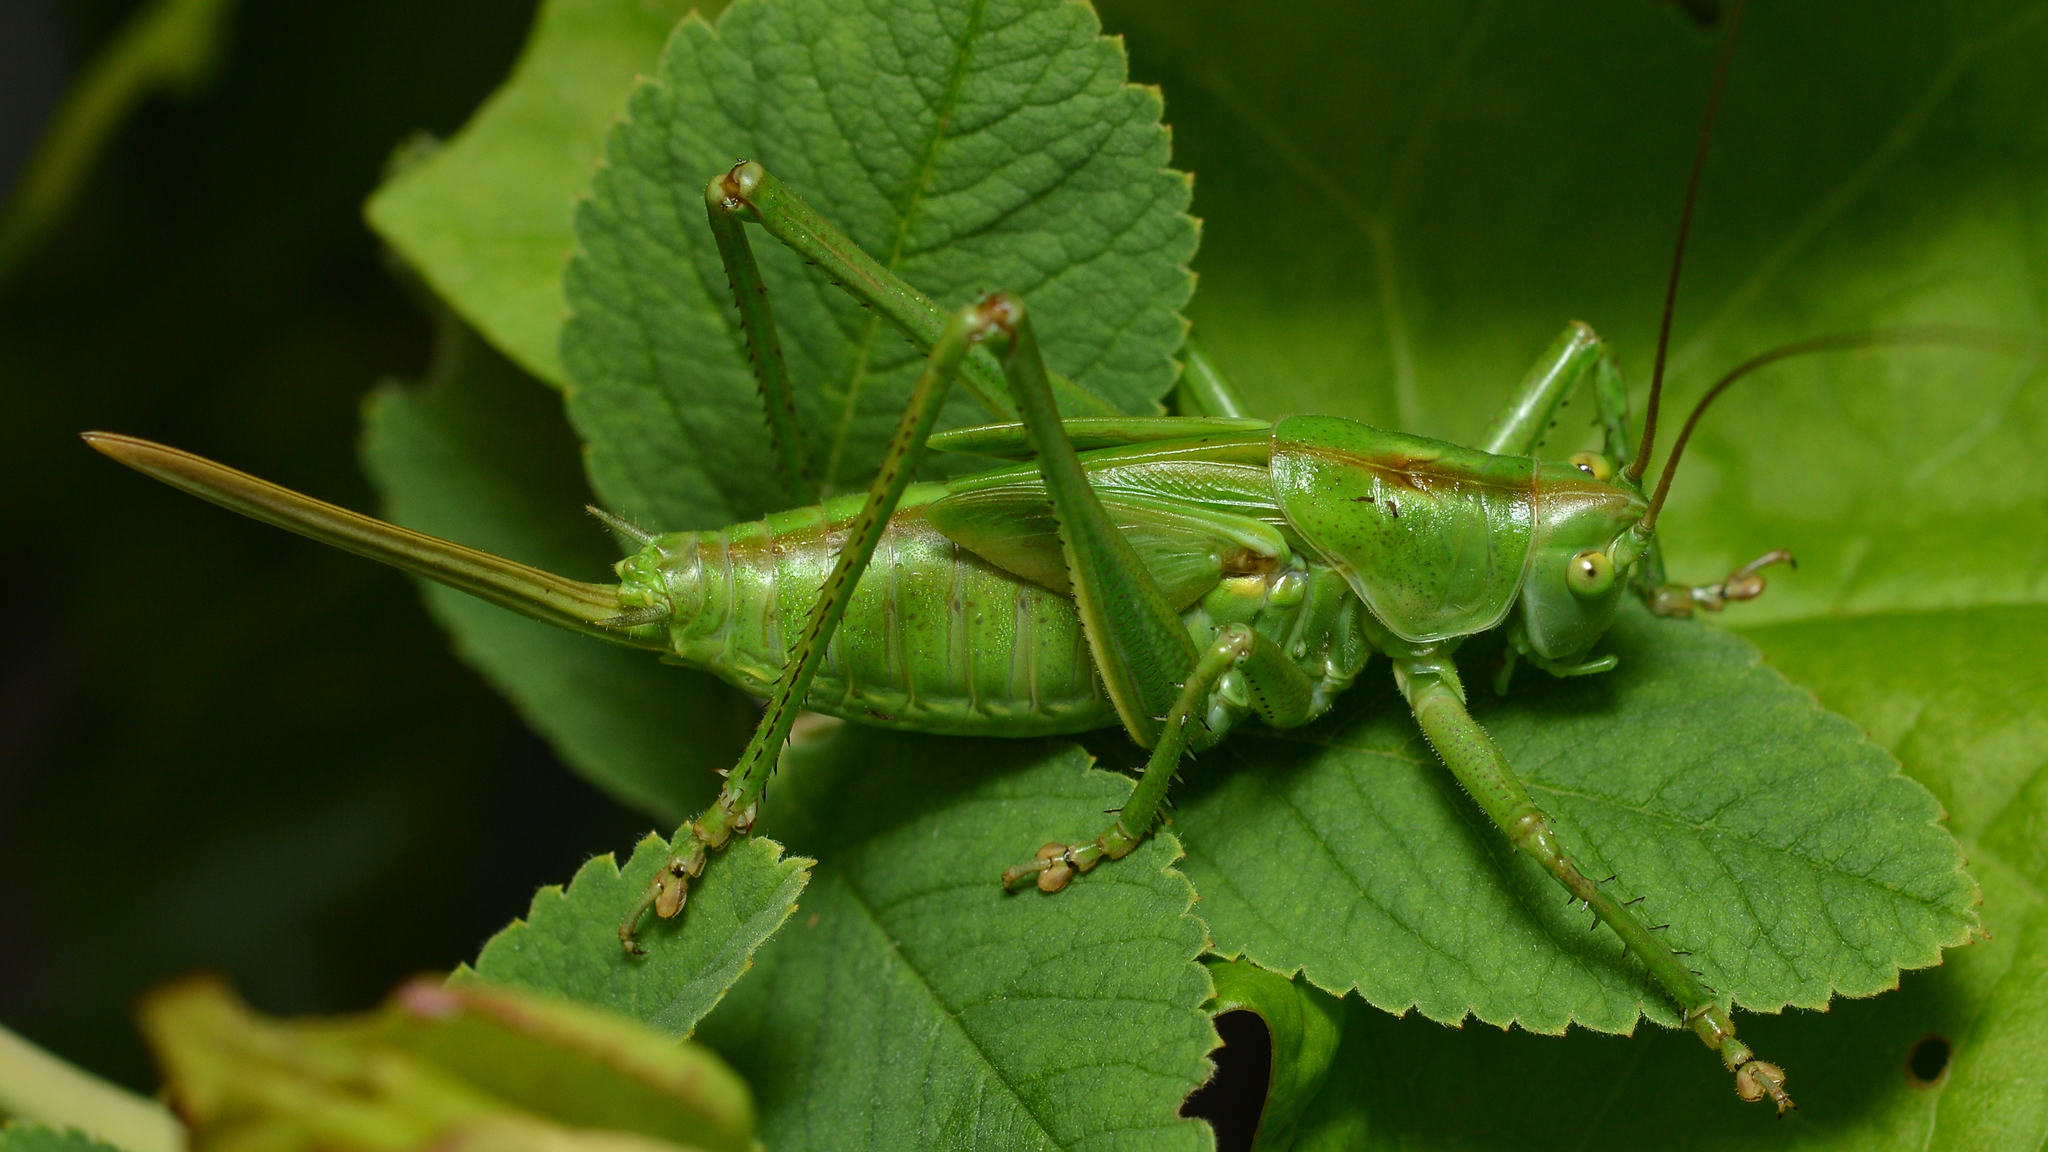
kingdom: Animalia
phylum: Arthropoda
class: Insecta
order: Orthoptera
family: Tettigoniidae
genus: Tettigonia
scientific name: Tettigonia viridissima
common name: Great green bush-cricket
